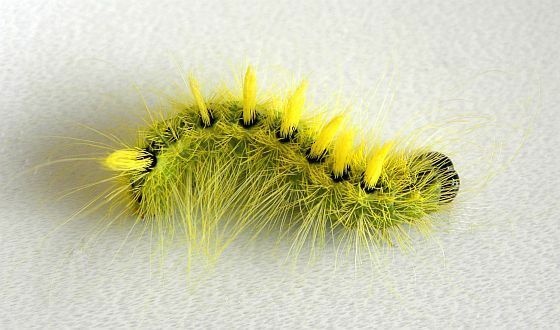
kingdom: Animalia
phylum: Arthropoda
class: Insecta
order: Lepidoptera
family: Noctuidae
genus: Acronicta
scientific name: Acronicta rubricoma
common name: Hackberry dagger
